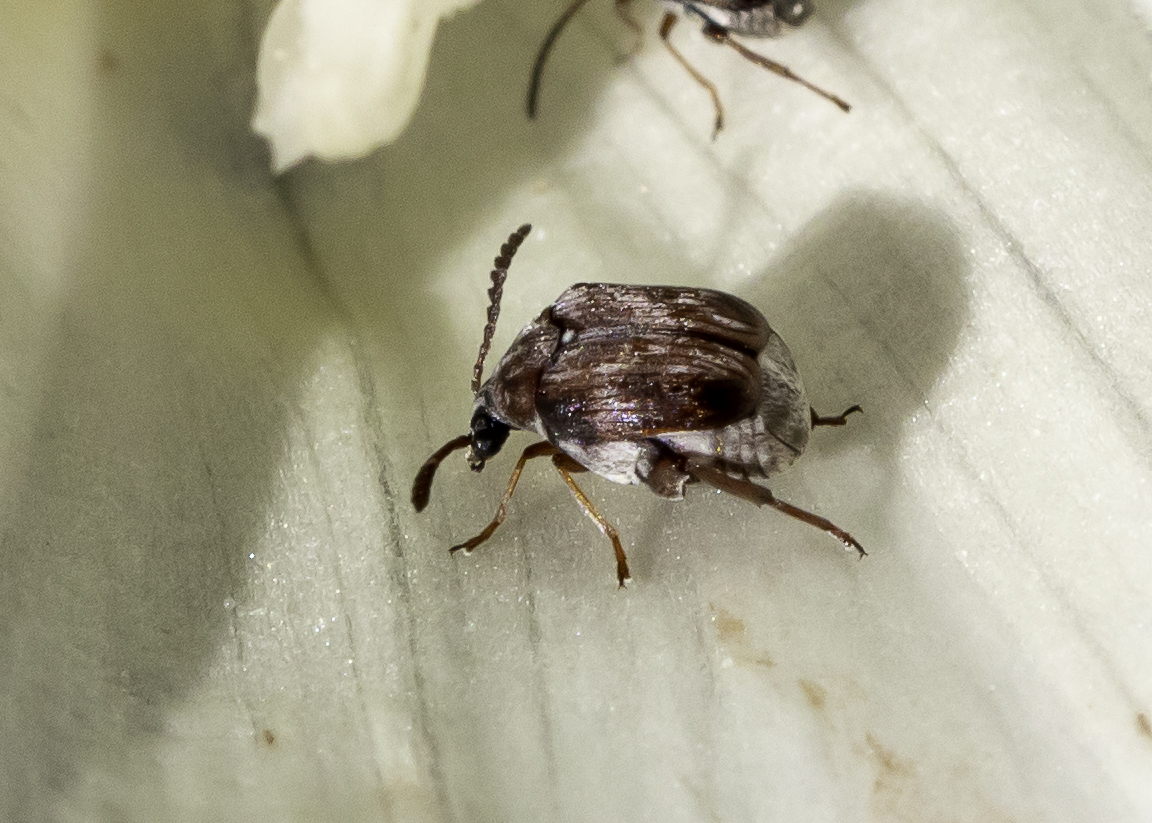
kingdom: Animalia
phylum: Arthropoda
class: Insecta
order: Coleoptera
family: Chrysomelidae
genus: Megacerus
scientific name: Megacerus impiger
